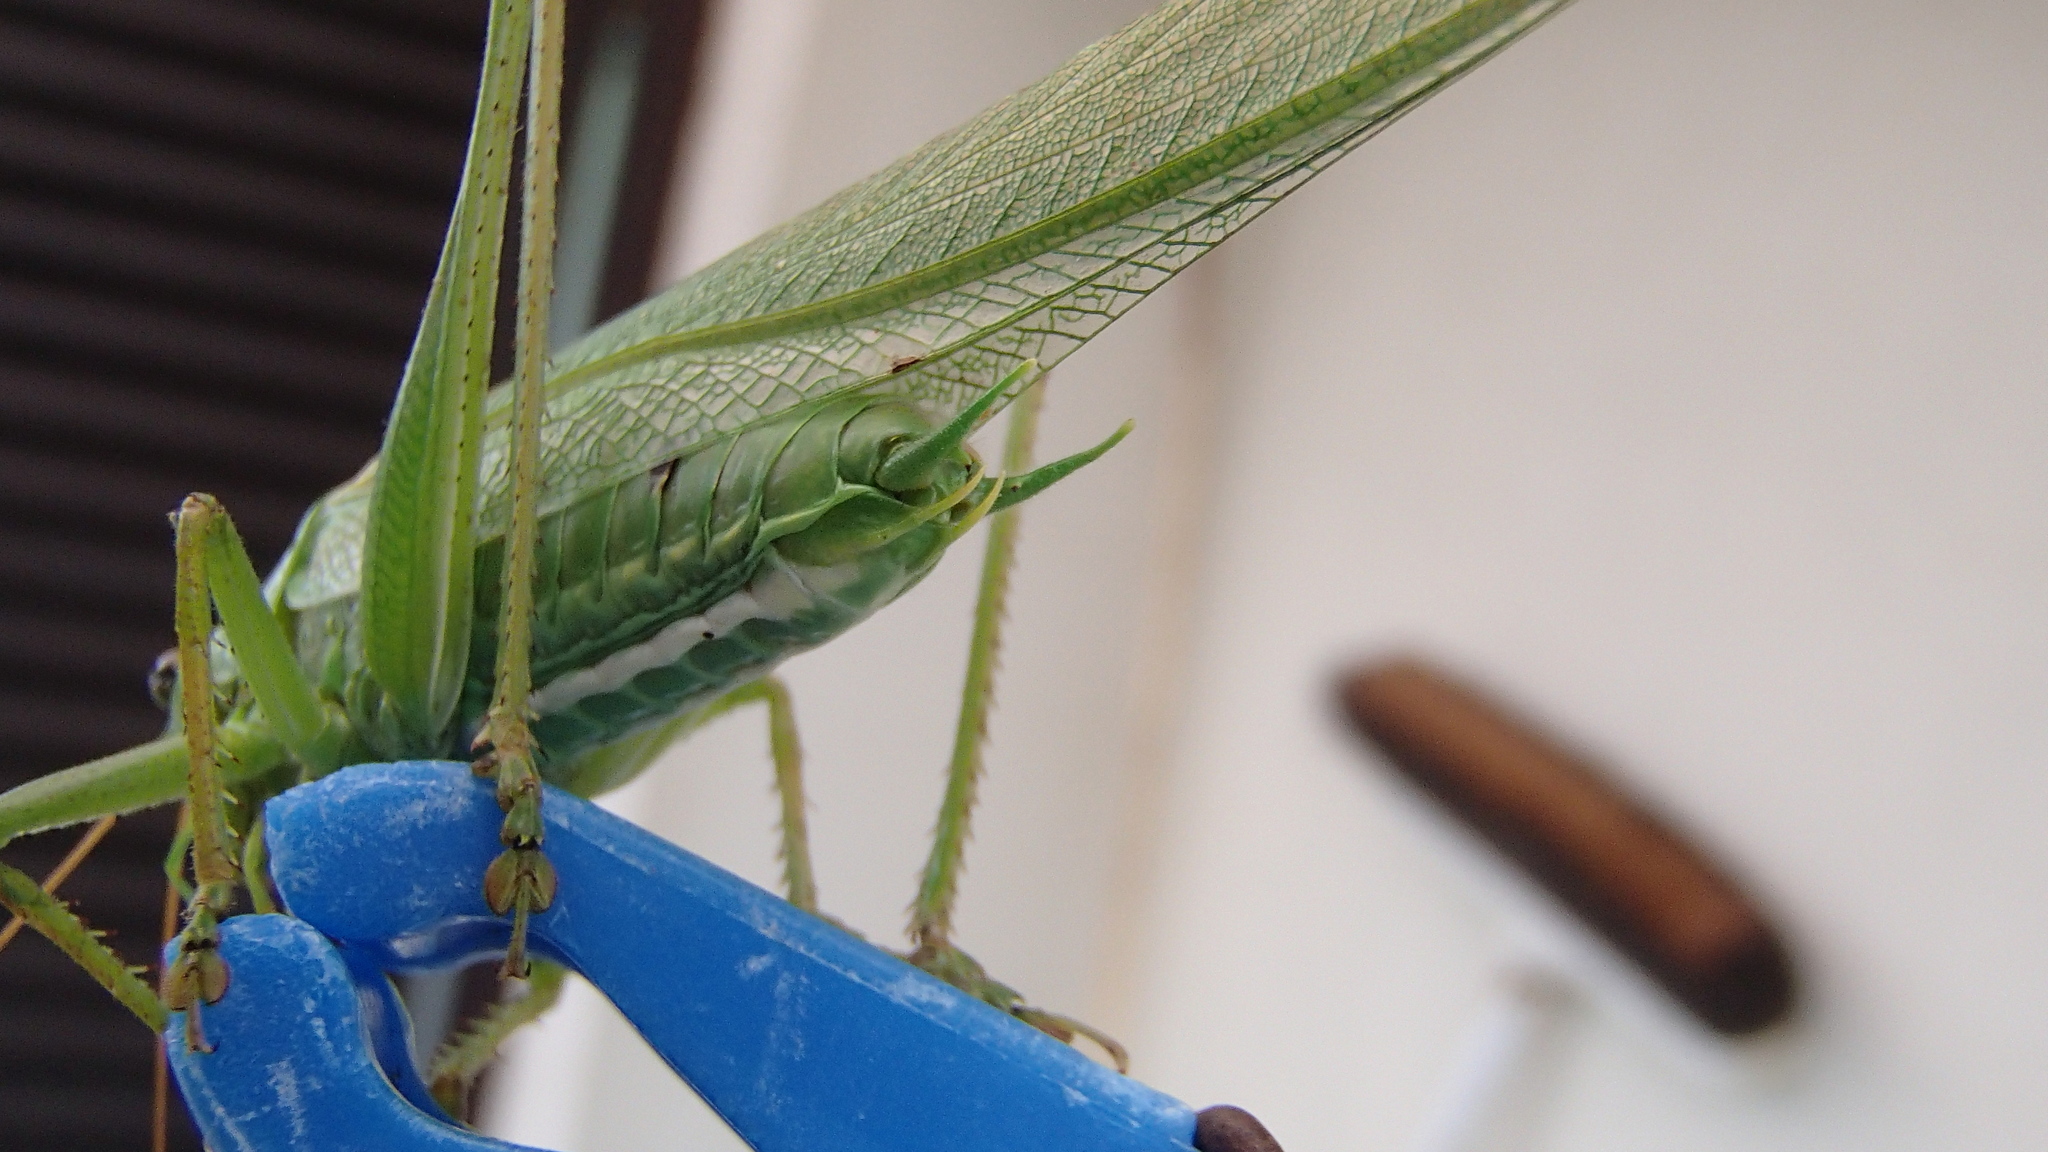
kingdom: Animalia
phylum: Arthropoda
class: Insecta
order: Orthoptera
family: Tettigoniidae
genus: Tettigonia
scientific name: Tettigonia viridissima
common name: Great green bush-cricket
